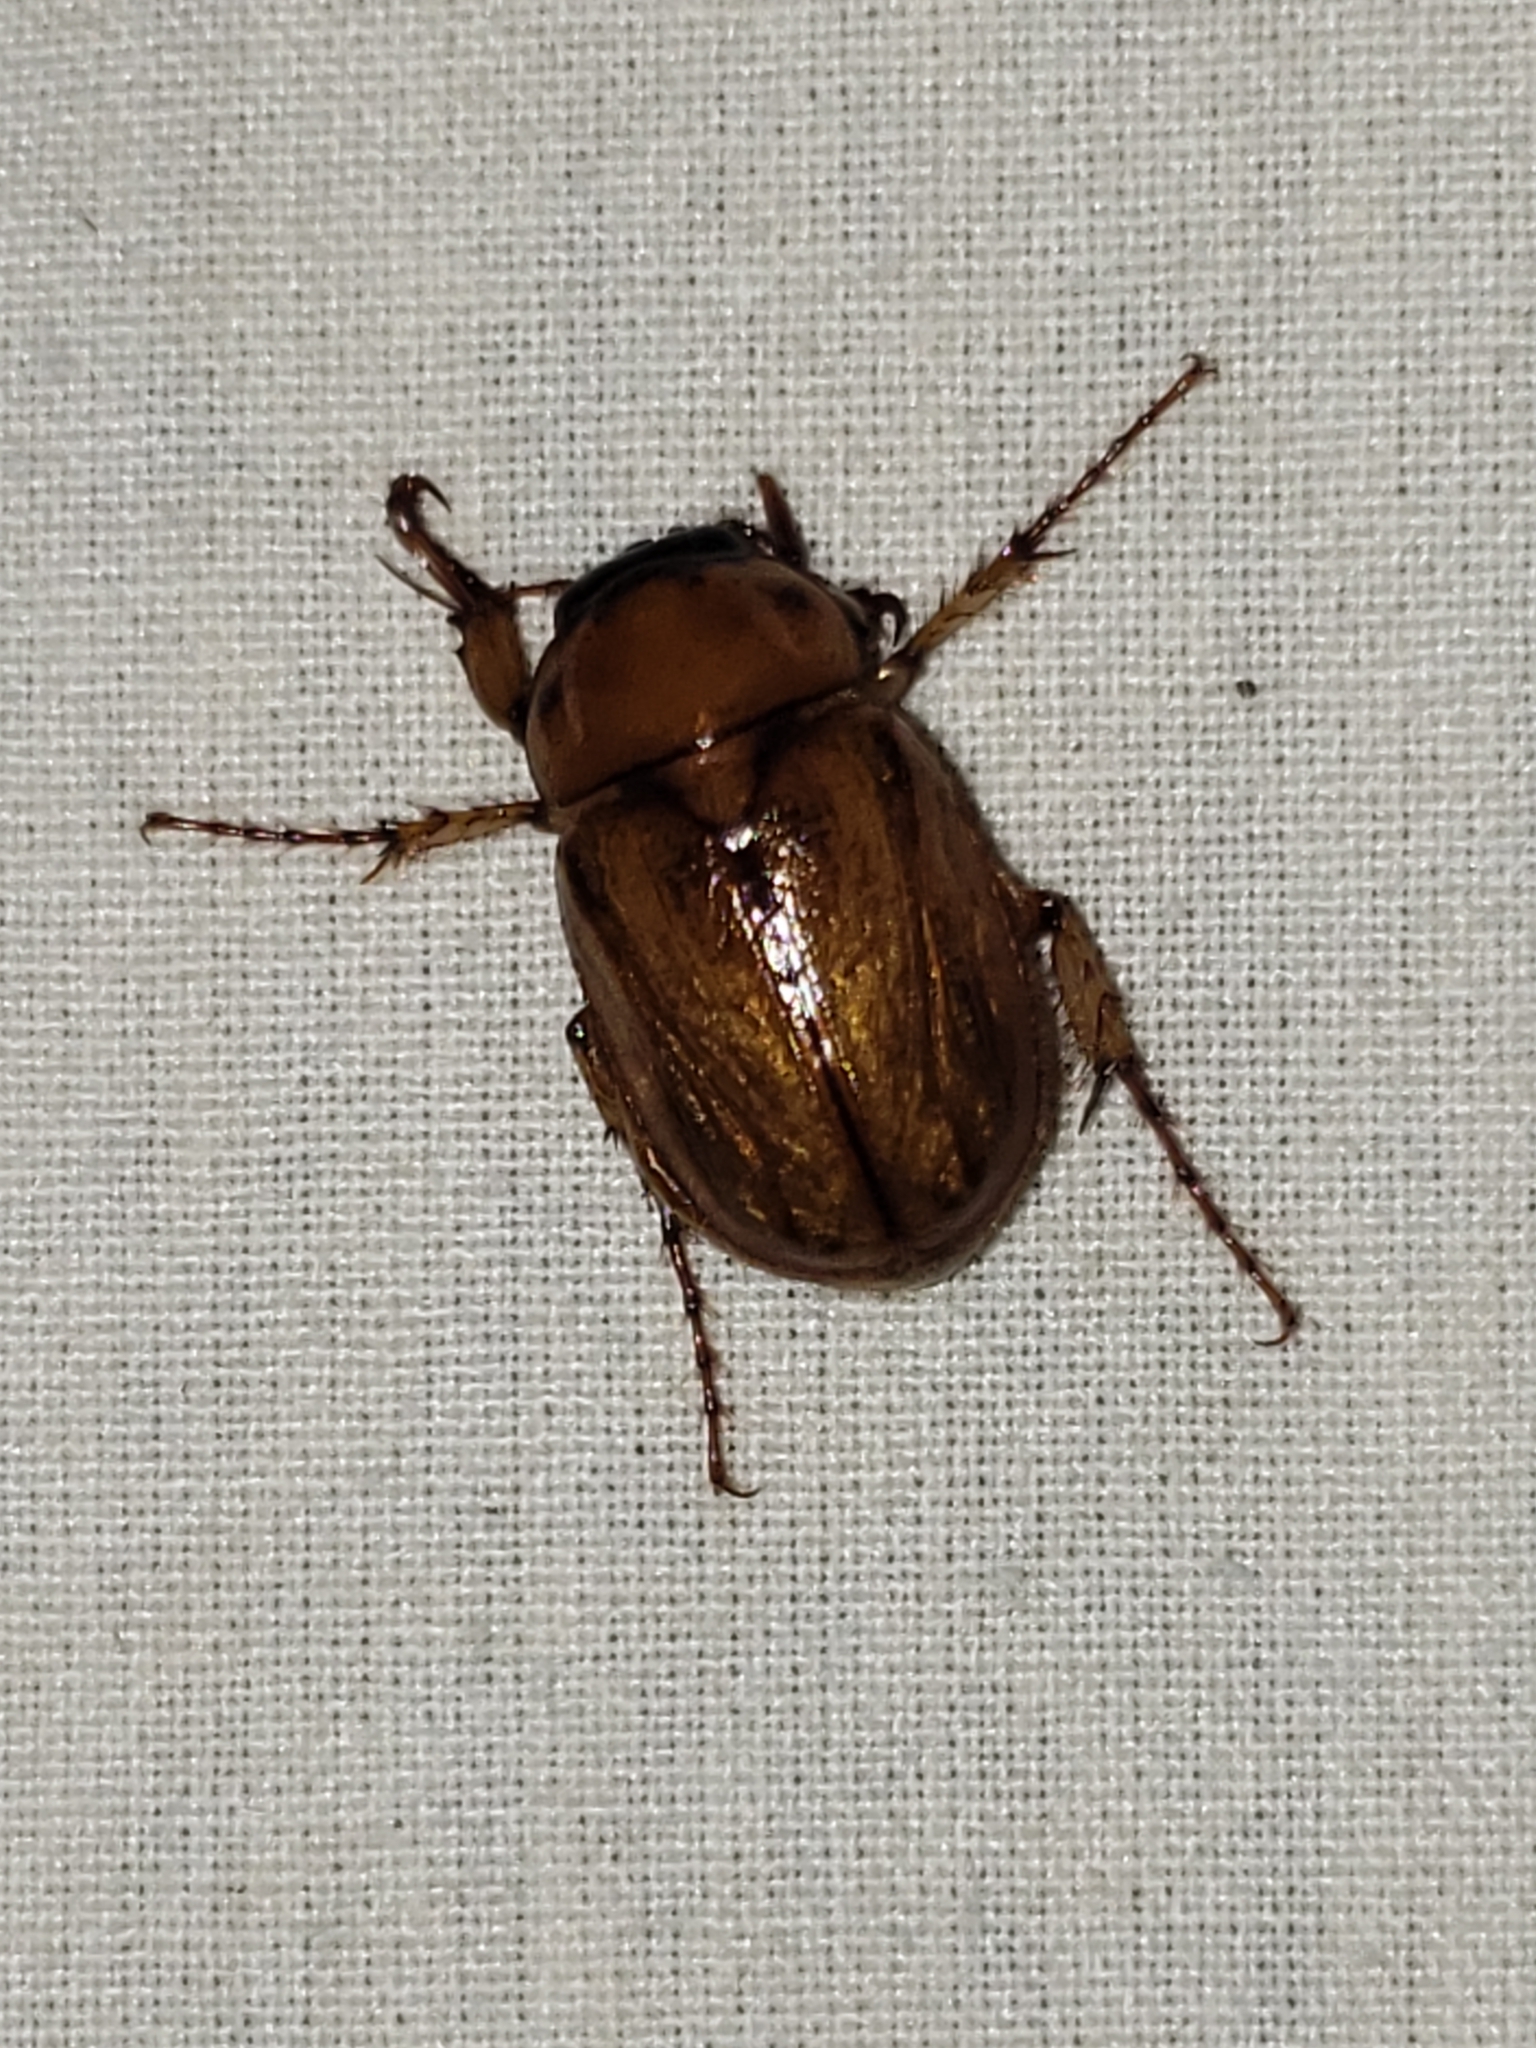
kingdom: Animalia
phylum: Arthropoda
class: Insecta
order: Coleoptera
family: Scarabaeidae
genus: Cyclocephala
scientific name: Cyclocephala lurida
